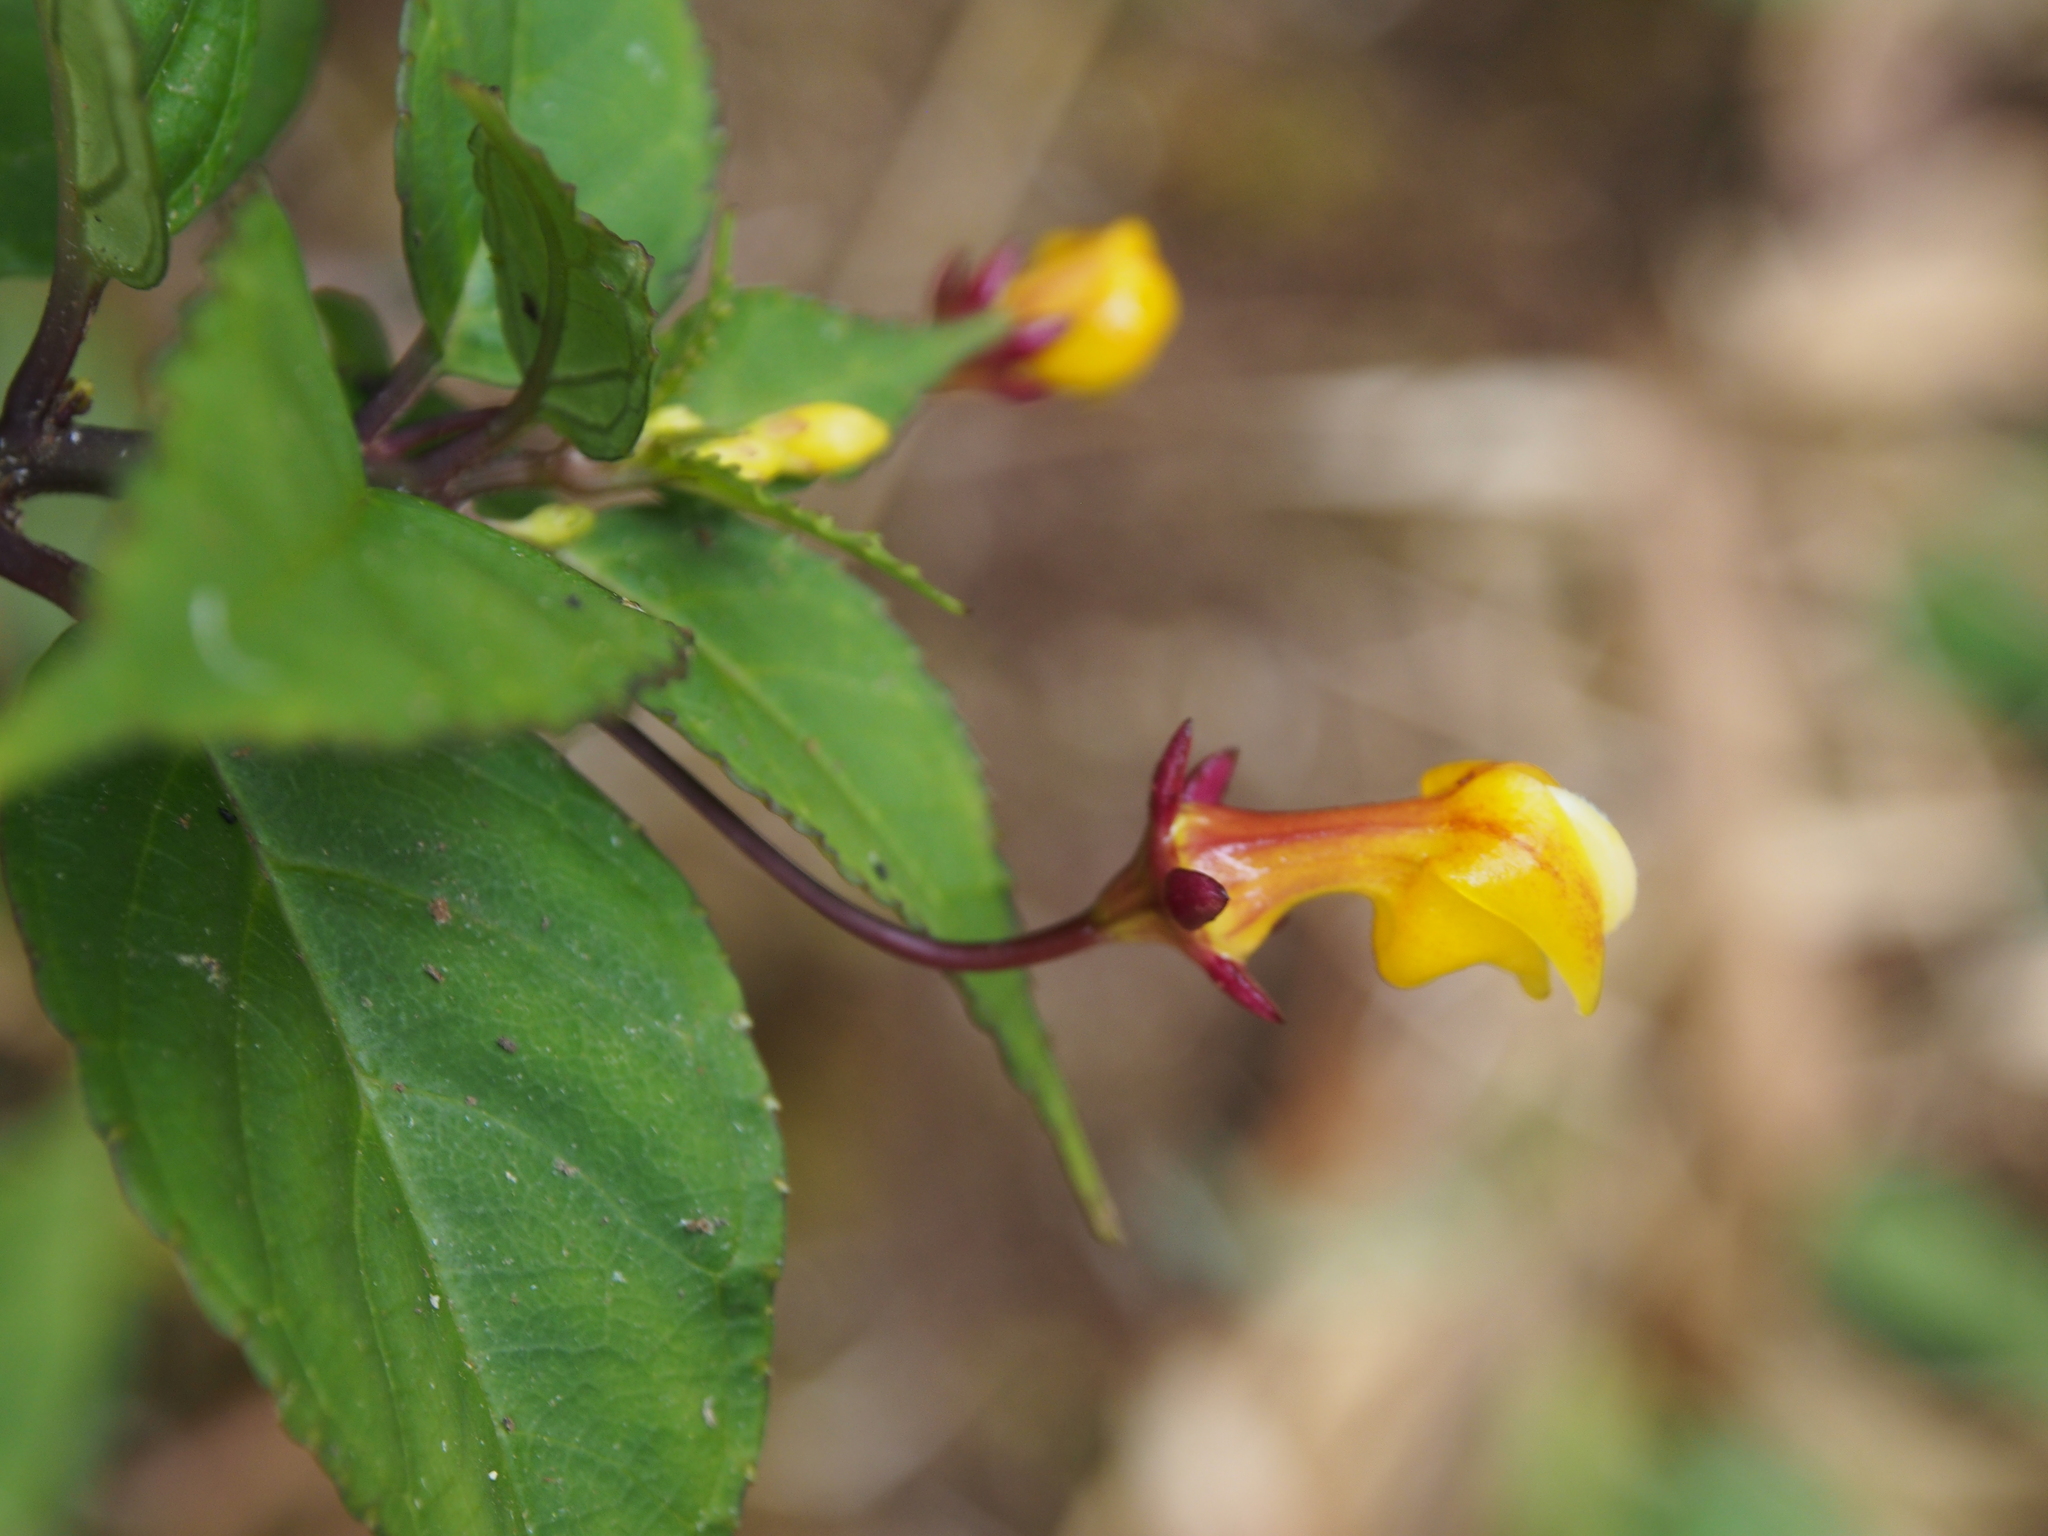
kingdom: Plantae
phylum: Tracheophyta
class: Magnoliopsida
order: Asterales
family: Campanulaceae
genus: Burmeistera
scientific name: Burmeistera parviflora
